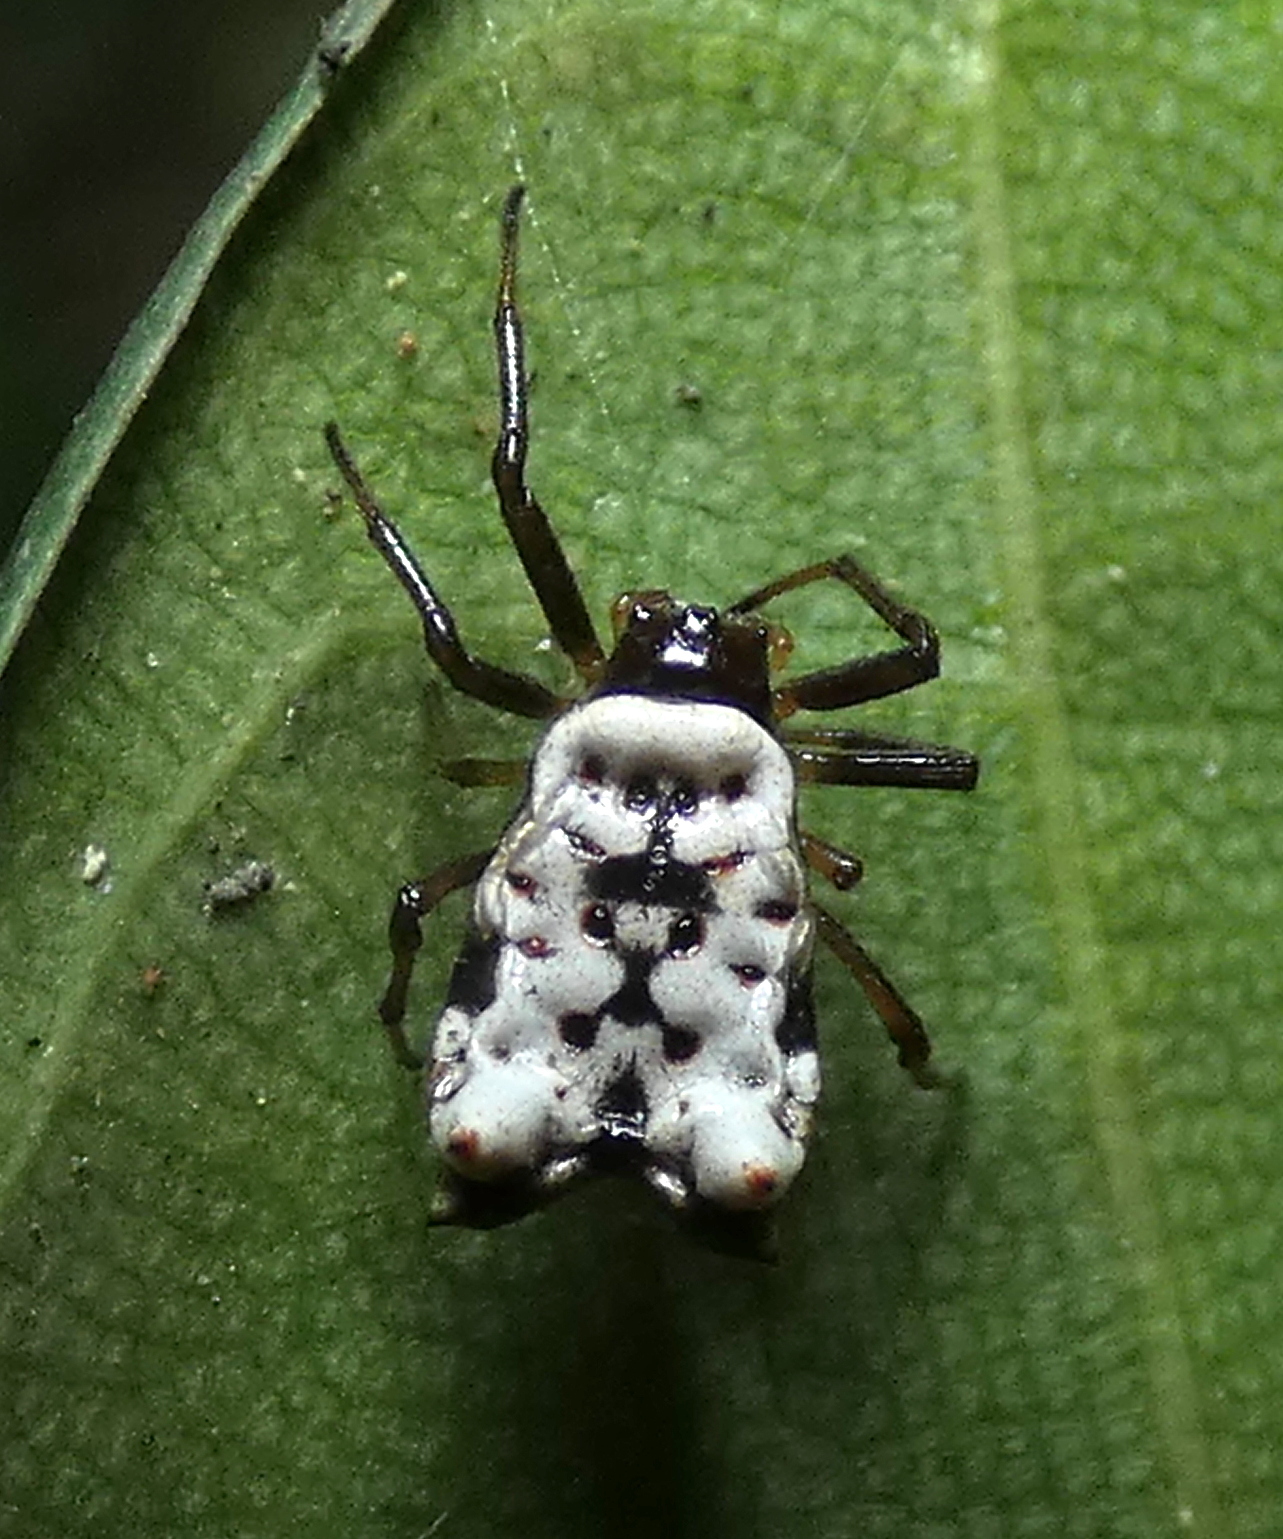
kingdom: Animalia
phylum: Arthropoda
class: Arachnida
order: Araneae
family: Araneidae
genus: Micrathena
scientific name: Micrathena patruelis
